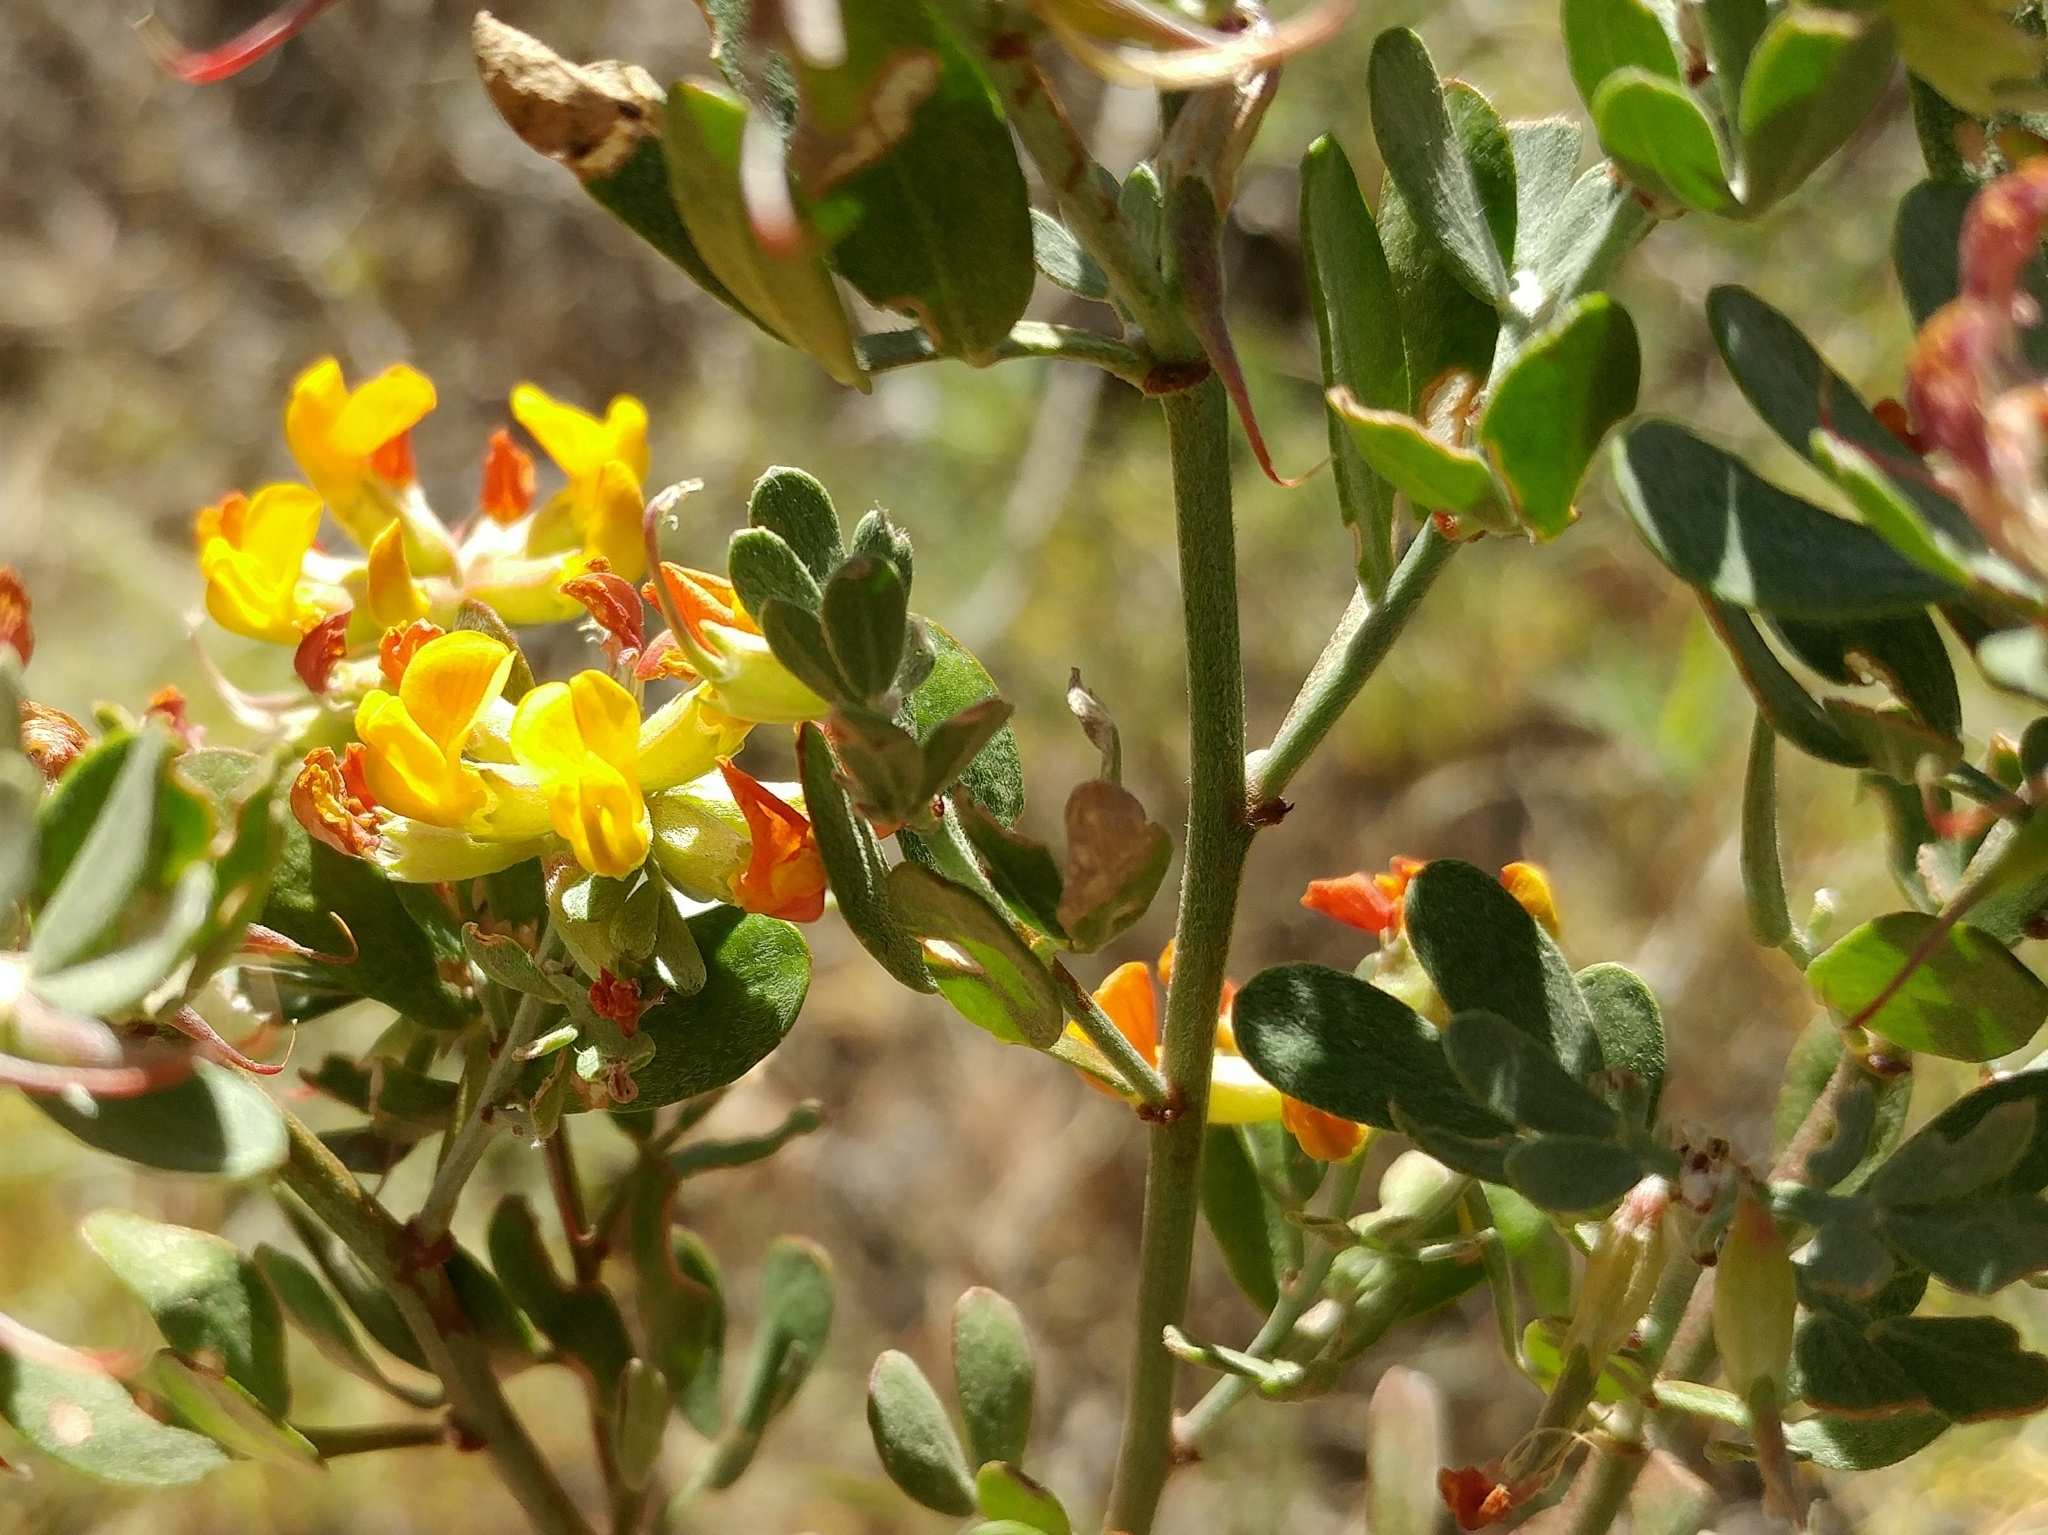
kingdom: Plantae
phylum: Tracheophyta
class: Magnoliopsida
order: Fabales
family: Fabaceae
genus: Acmispon
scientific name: Acmispon dendroideus
